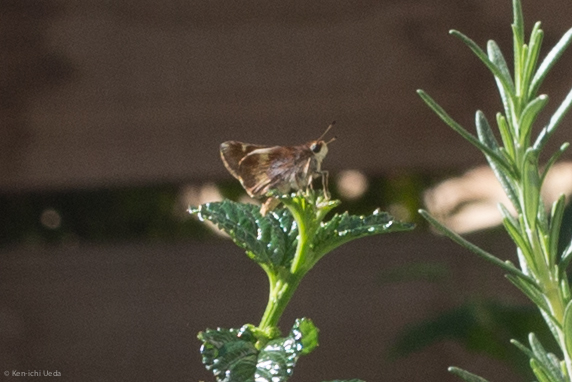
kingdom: Animalia
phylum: Arthropoda
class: Insecta
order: Lepidoptera
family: Hesperiidae
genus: Lon
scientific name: Lon melane
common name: Umber skipper
